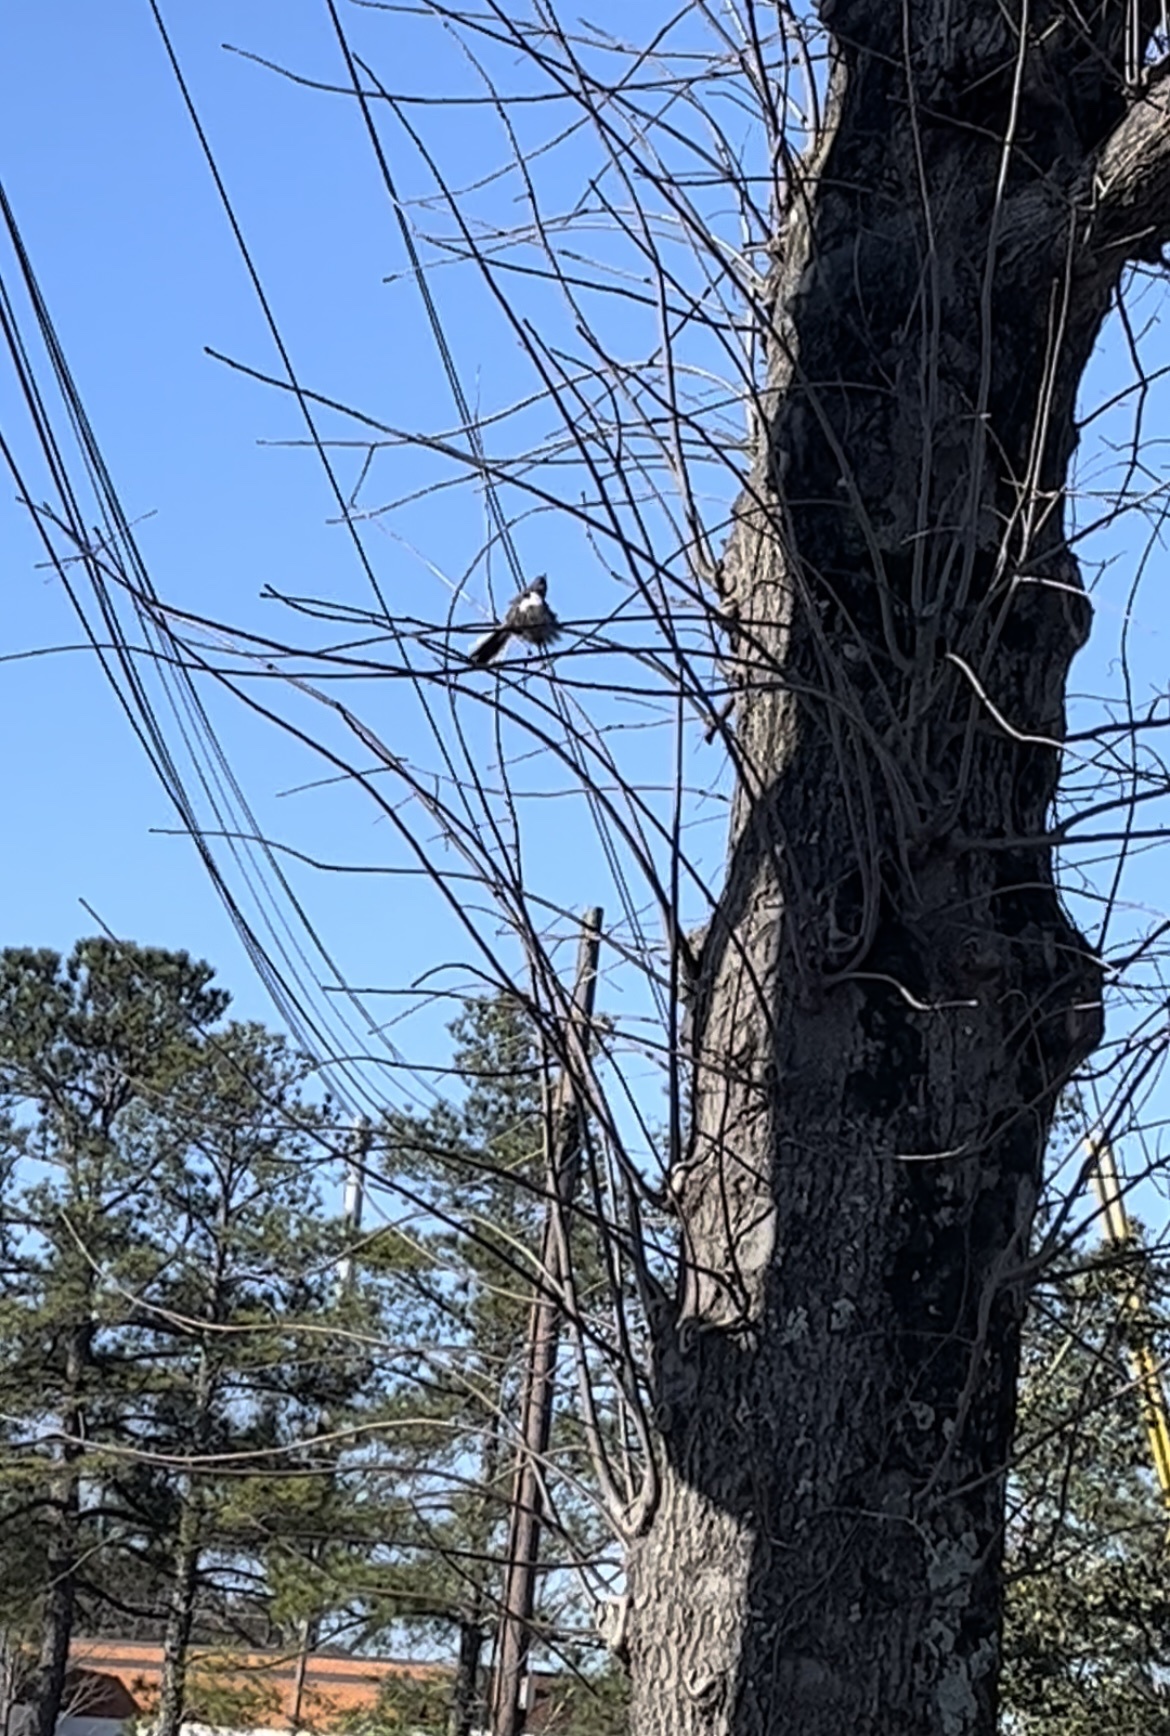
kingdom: Animalia
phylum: Chordata
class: Aves
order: Passeriformes
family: Mimidae
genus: Mimus
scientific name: Mimus polyglottos
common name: Northern mockingbird
